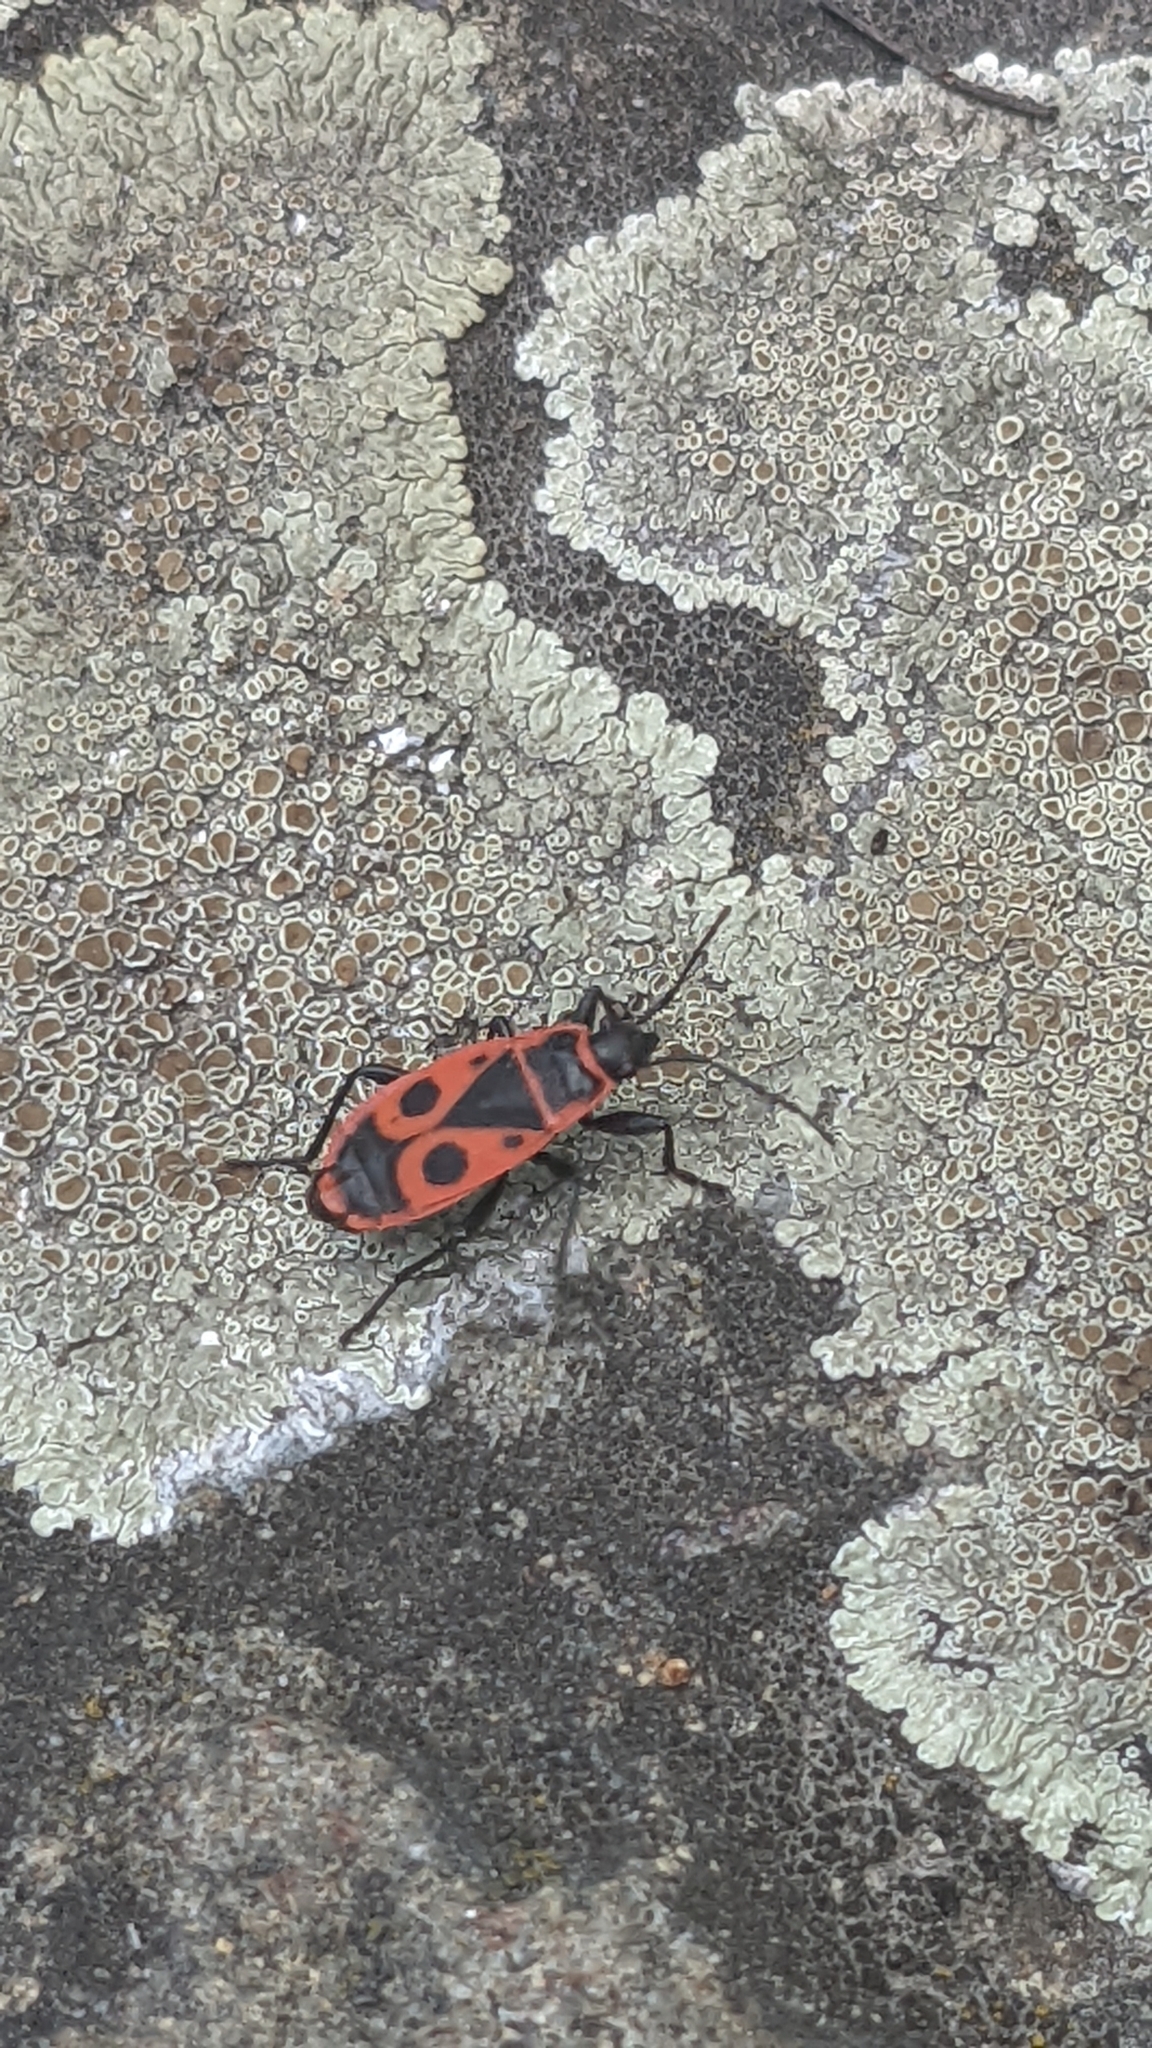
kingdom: Animalia
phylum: Arthropoda
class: Insecta
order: Hemiptera
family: Pyrrhocoridae
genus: Pyrrhocoris
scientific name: Pyrrhocoris apterus
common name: Firebug
